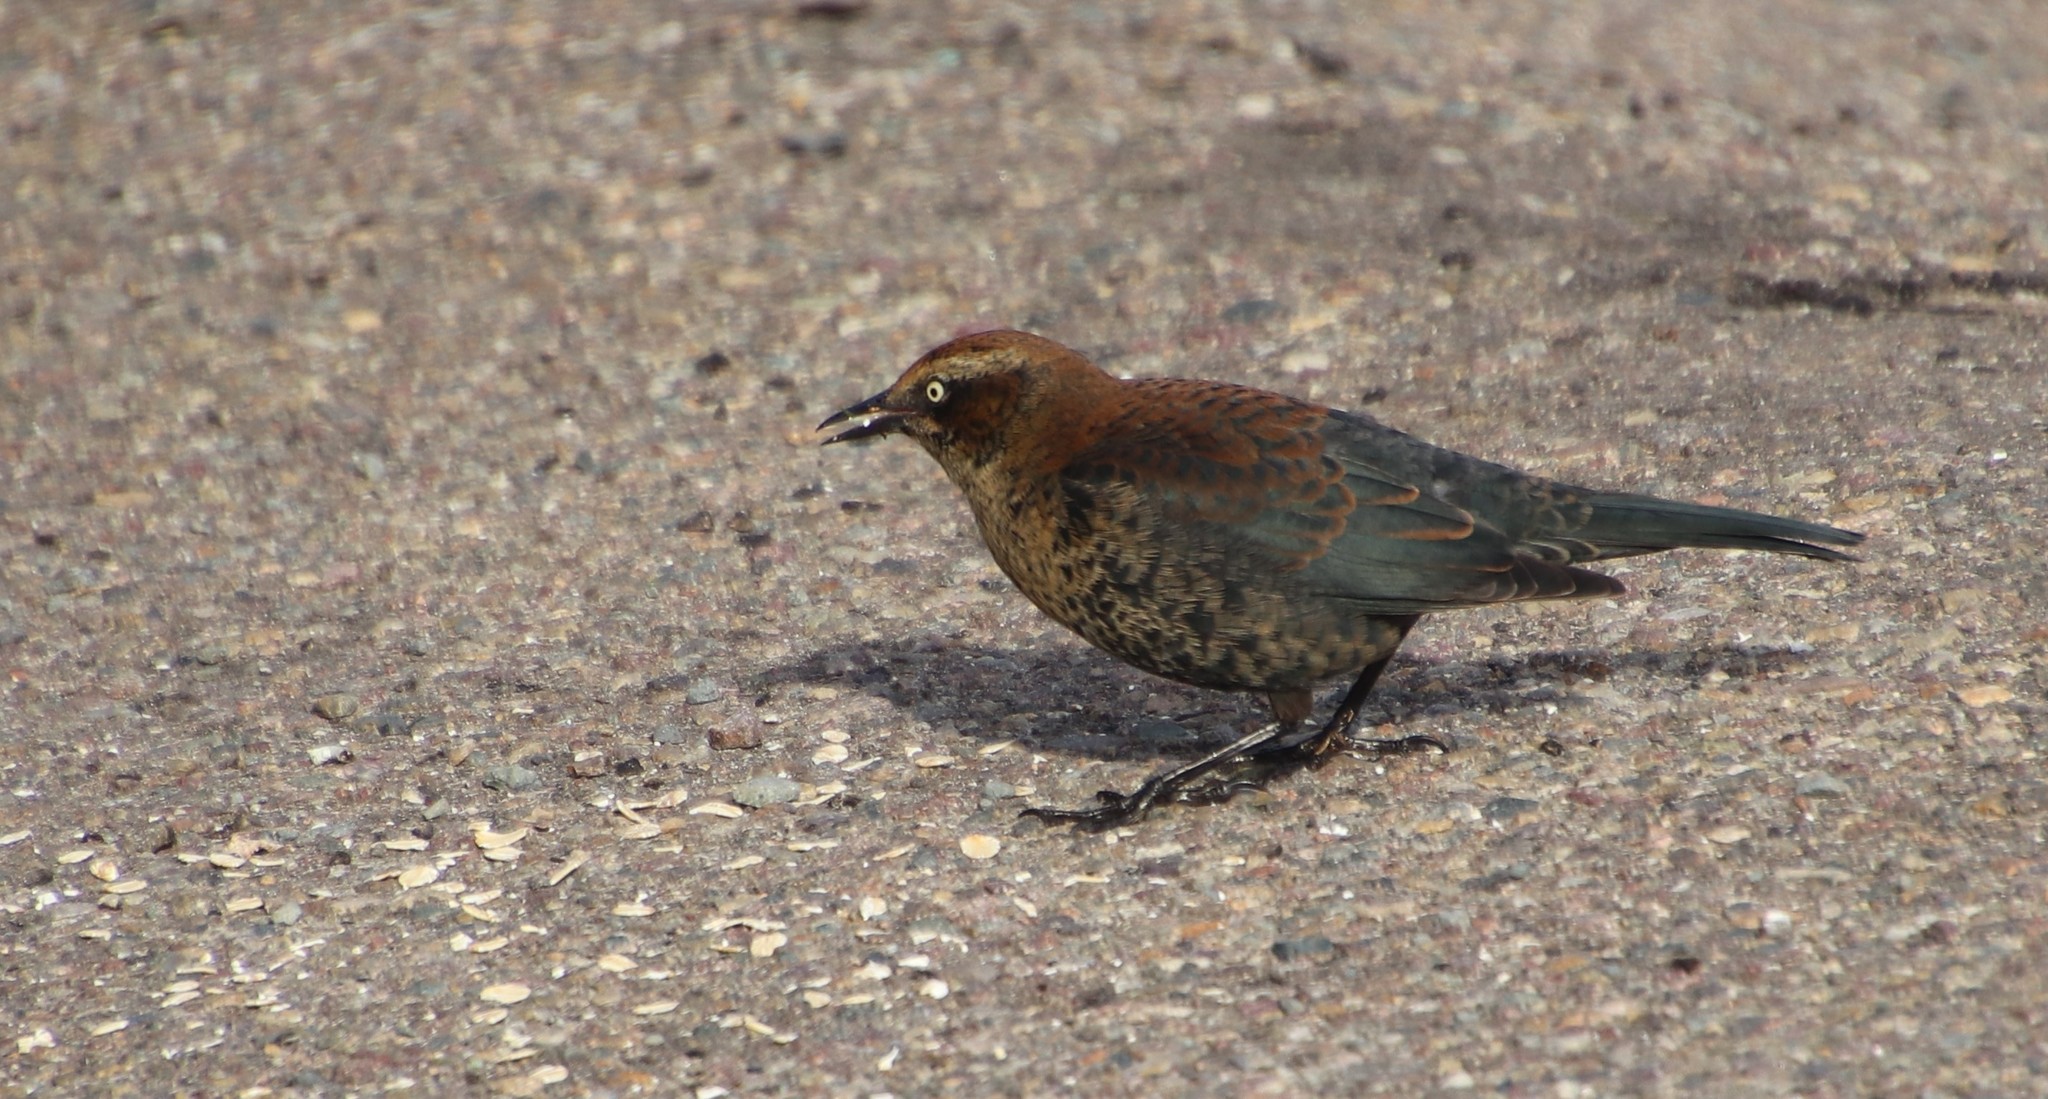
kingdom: Animalia
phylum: Chordata
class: Aves
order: Passeriformes
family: Icteridae
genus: Euphagus
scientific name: Euphagus carolinus
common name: Rusty blackbird
